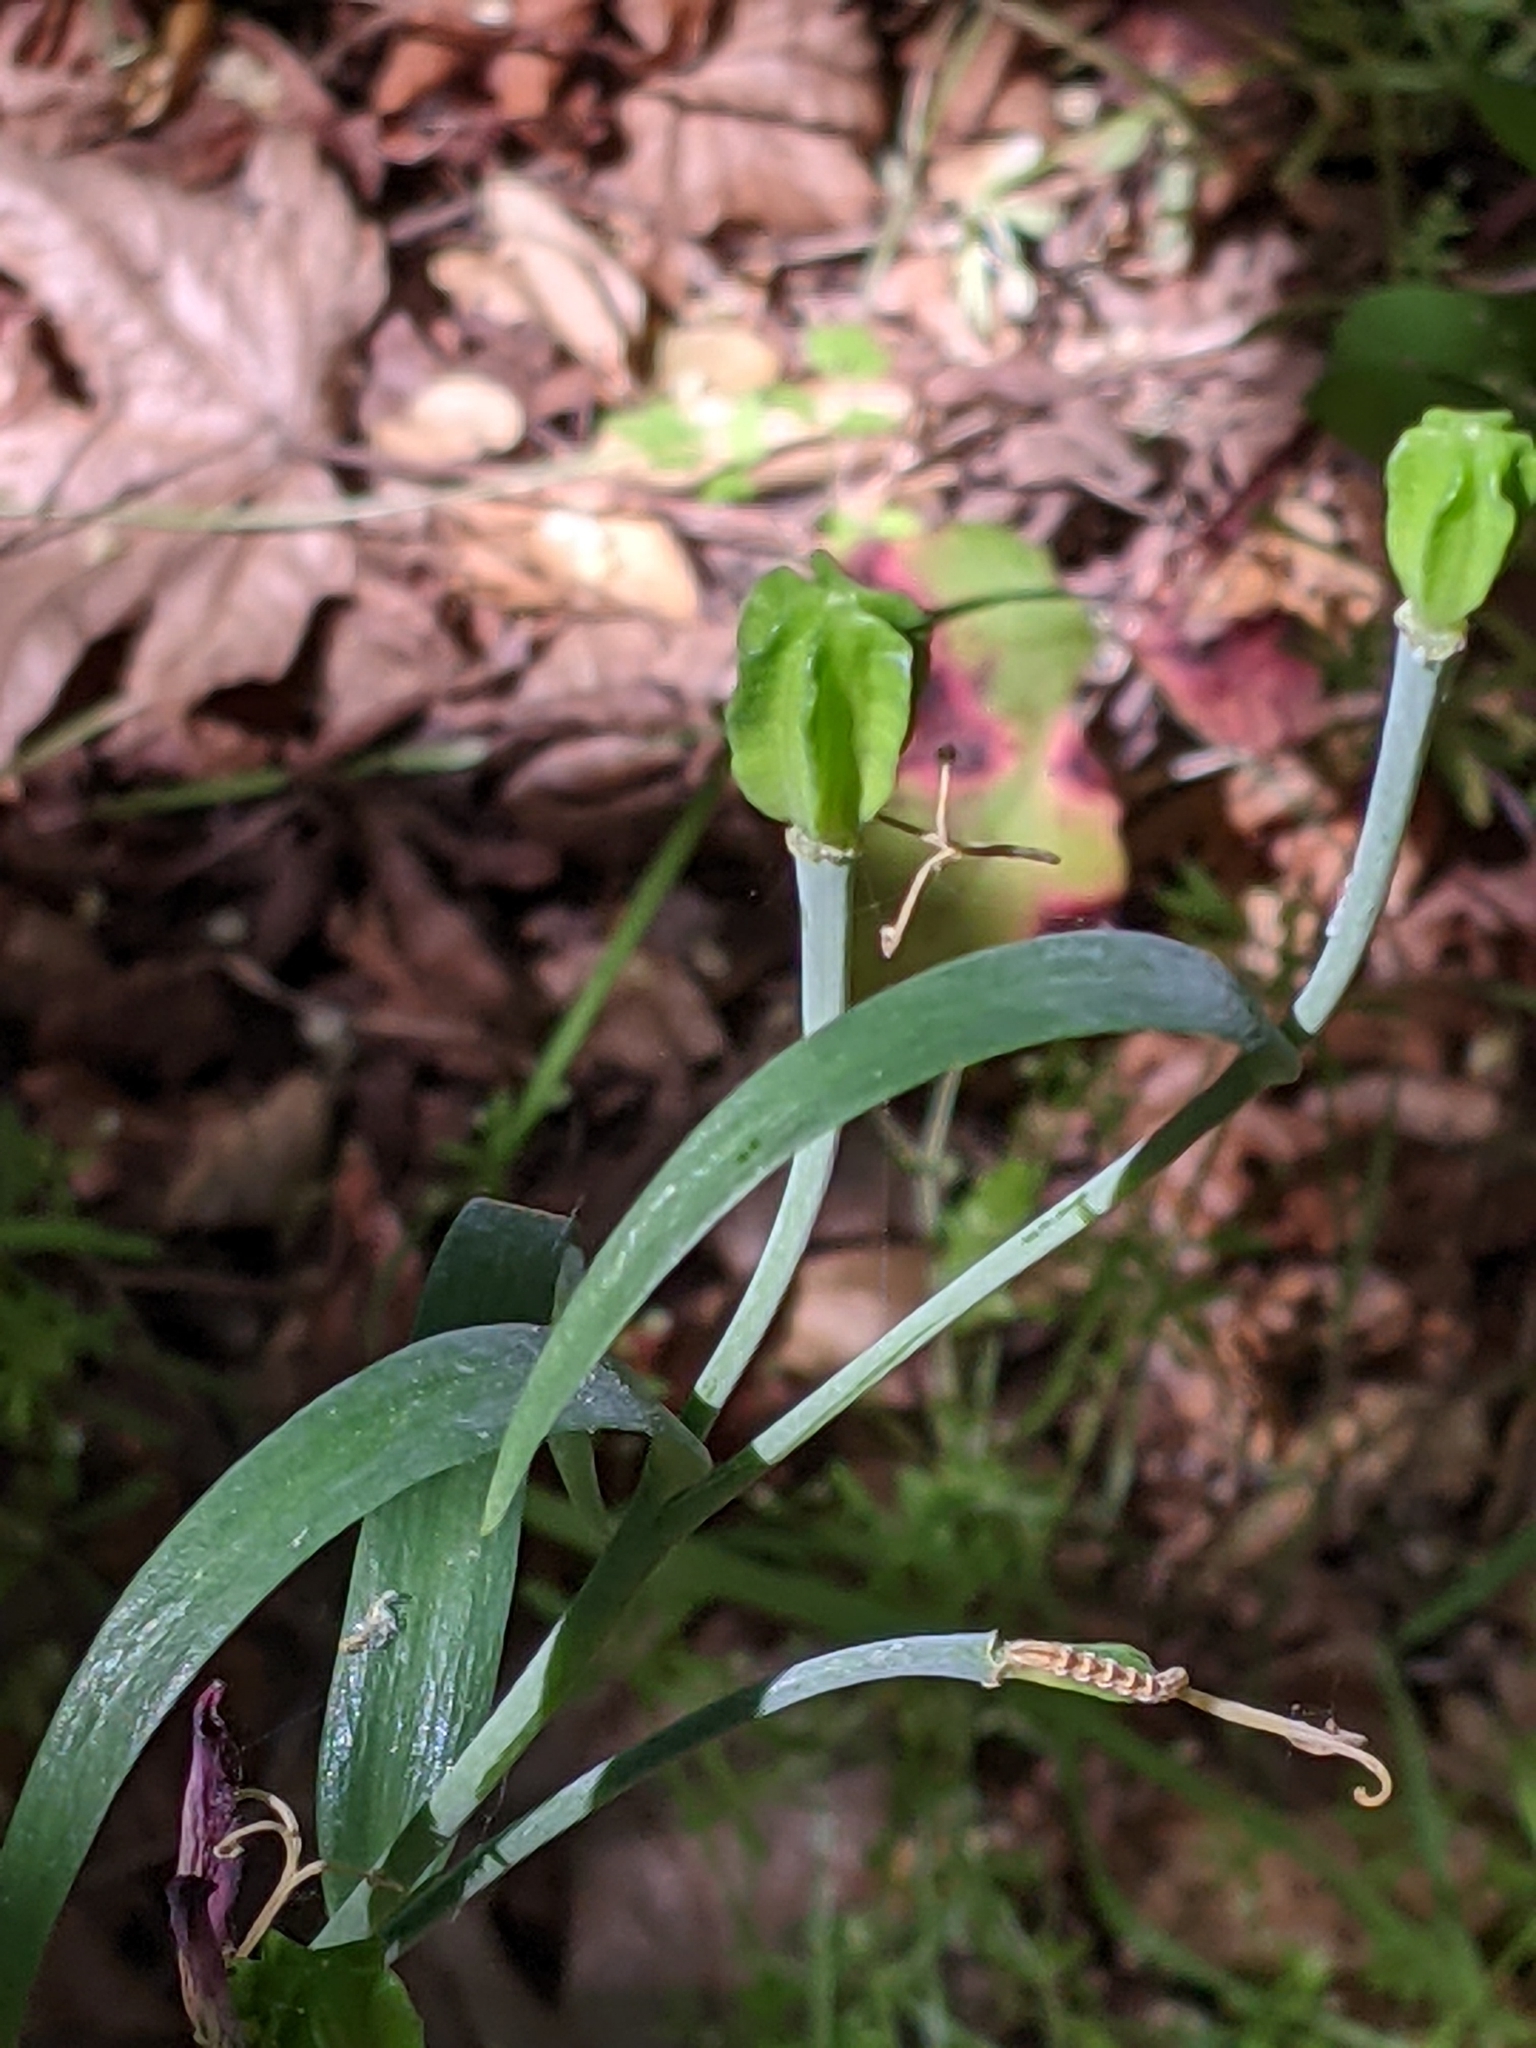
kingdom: Plantae
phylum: Tracheophyta
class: Liliopsida
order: Liliales
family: Liliaceae
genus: Fritillaria
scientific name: Fritillaria affinis
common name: Ojai fritillary
